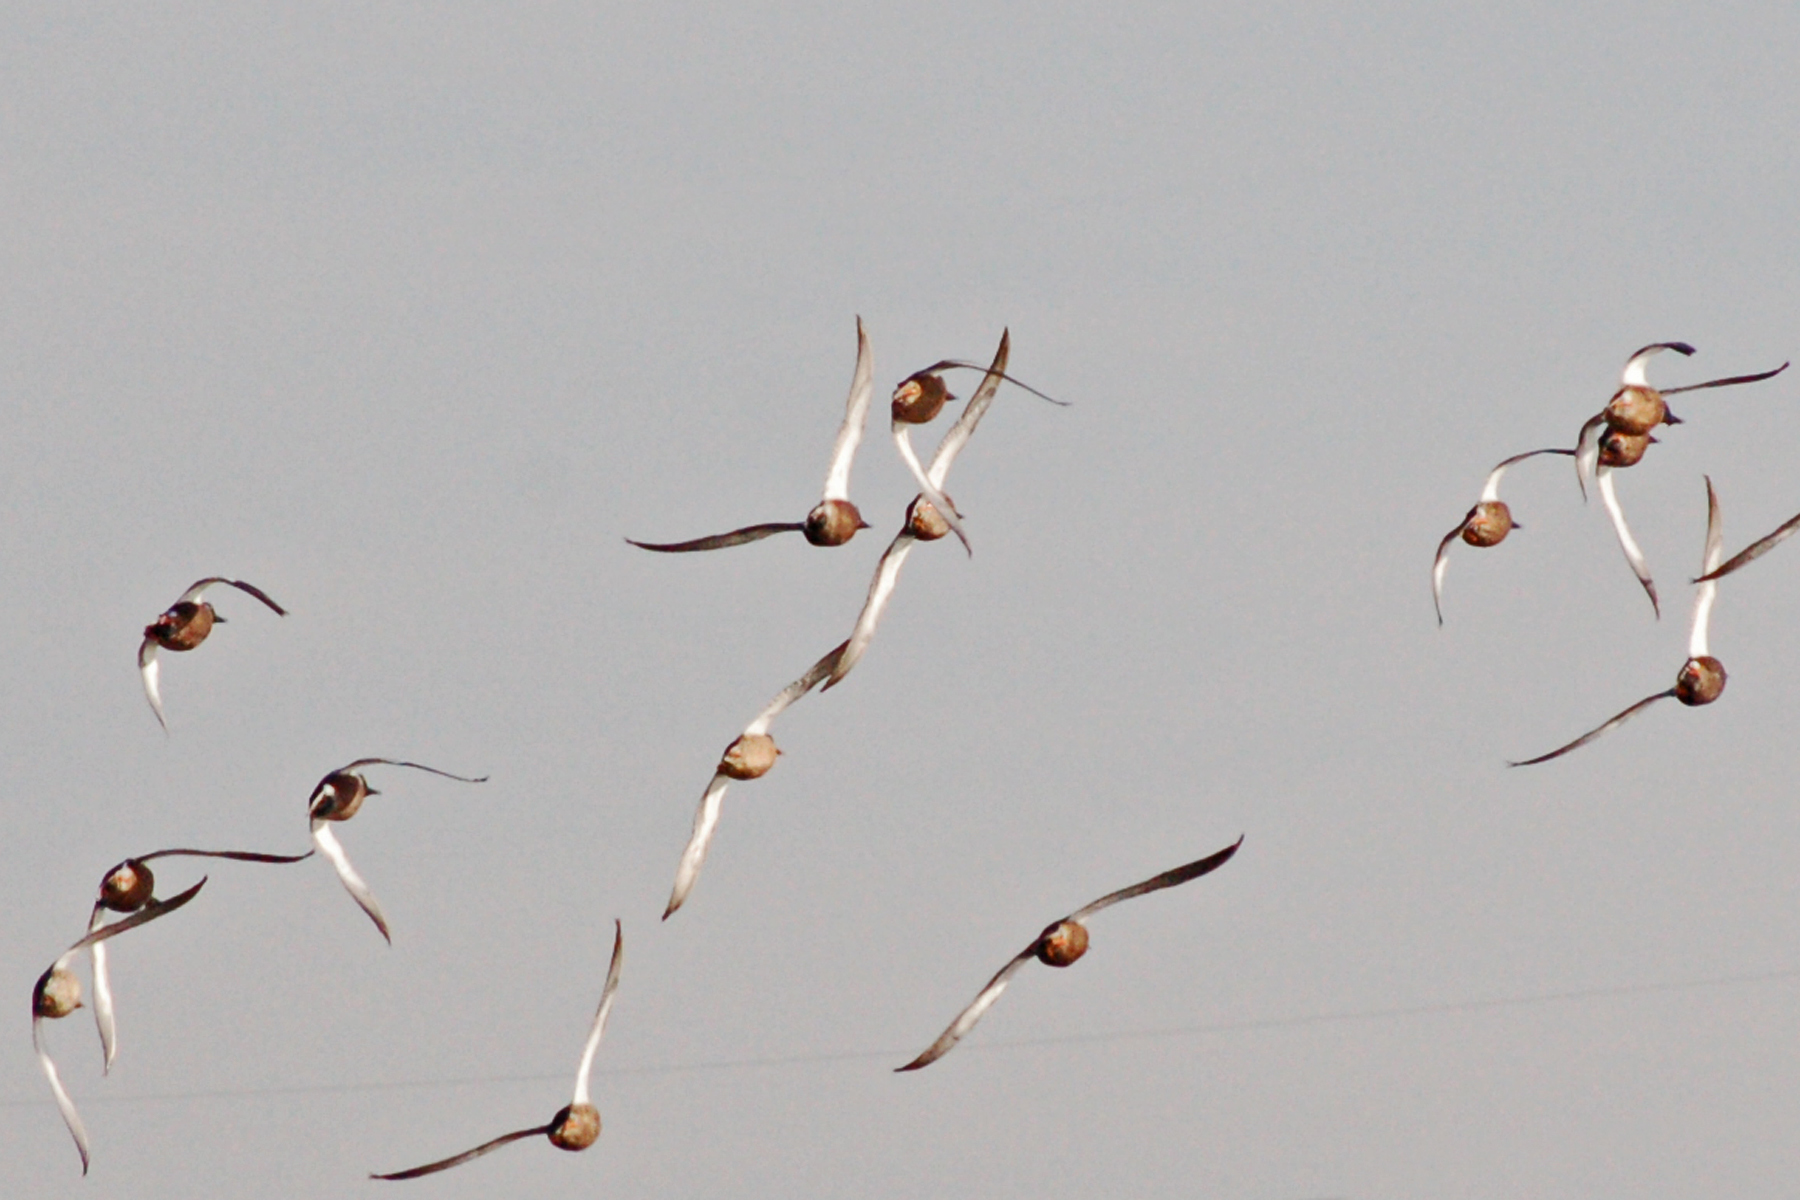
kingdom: Animalia
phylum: Chordata
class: Aves
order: Anseriformes
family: Anatidae
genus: Spatula
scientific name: Spatula clypeata
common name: Northern shoveler
